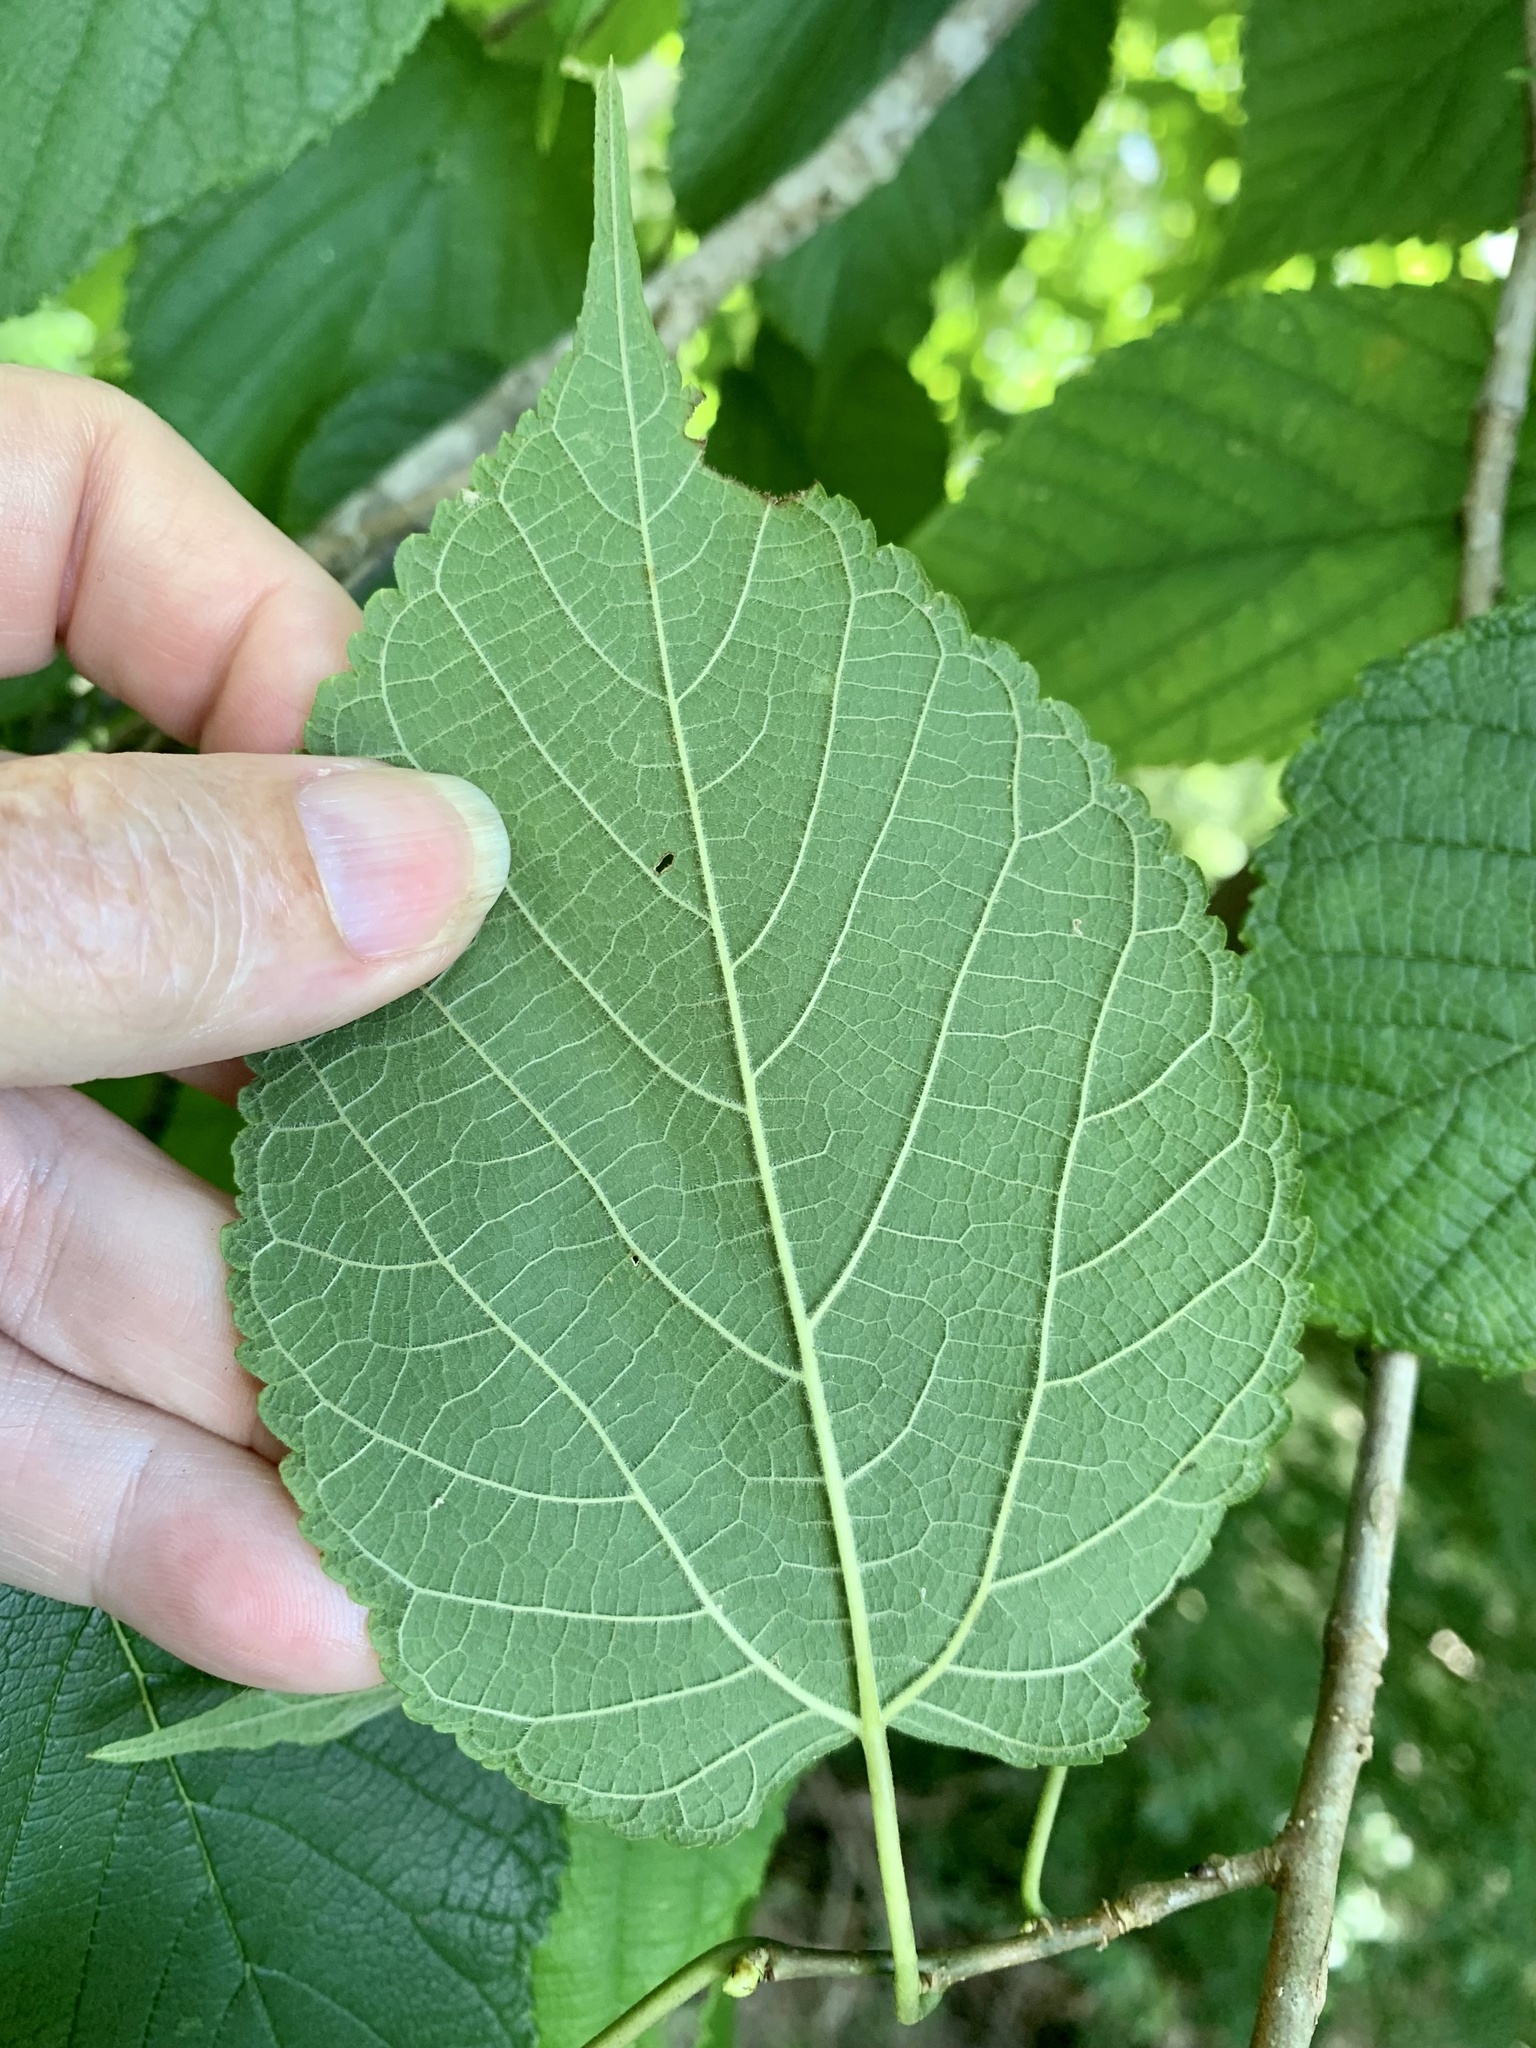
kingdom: Plantae
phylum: Tracheophyta
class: Magnoliopsida
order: Rosales
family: Moraceae
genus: Morus
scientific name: Morus rubra
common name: Red mulberry
